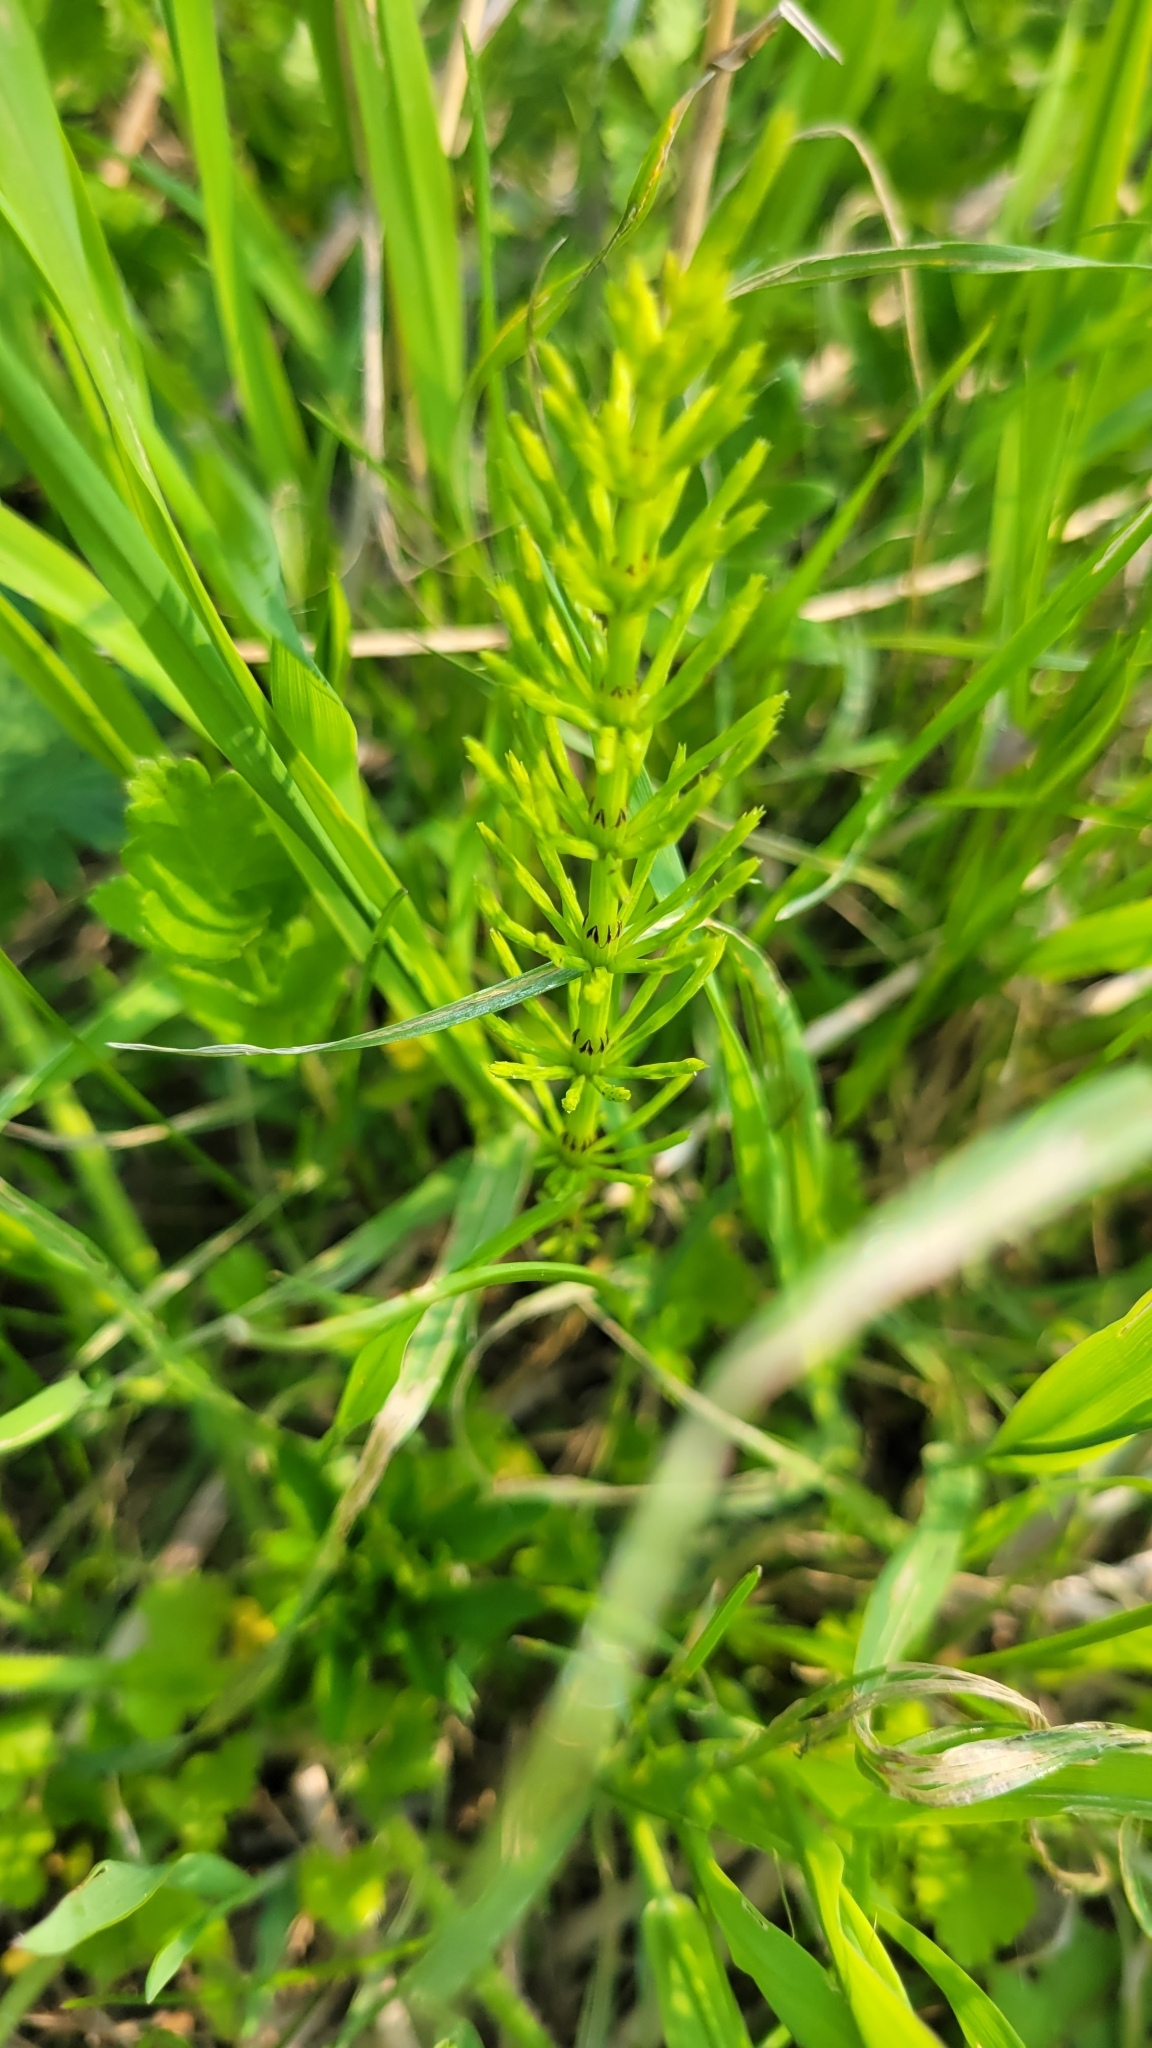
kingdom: Plantae
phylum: Tracheophyta
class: Polypodiopsida
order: Equisetales
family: Equisetaceae
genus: Equisetum
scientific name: Equisetum arvense
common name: Field horsetail
